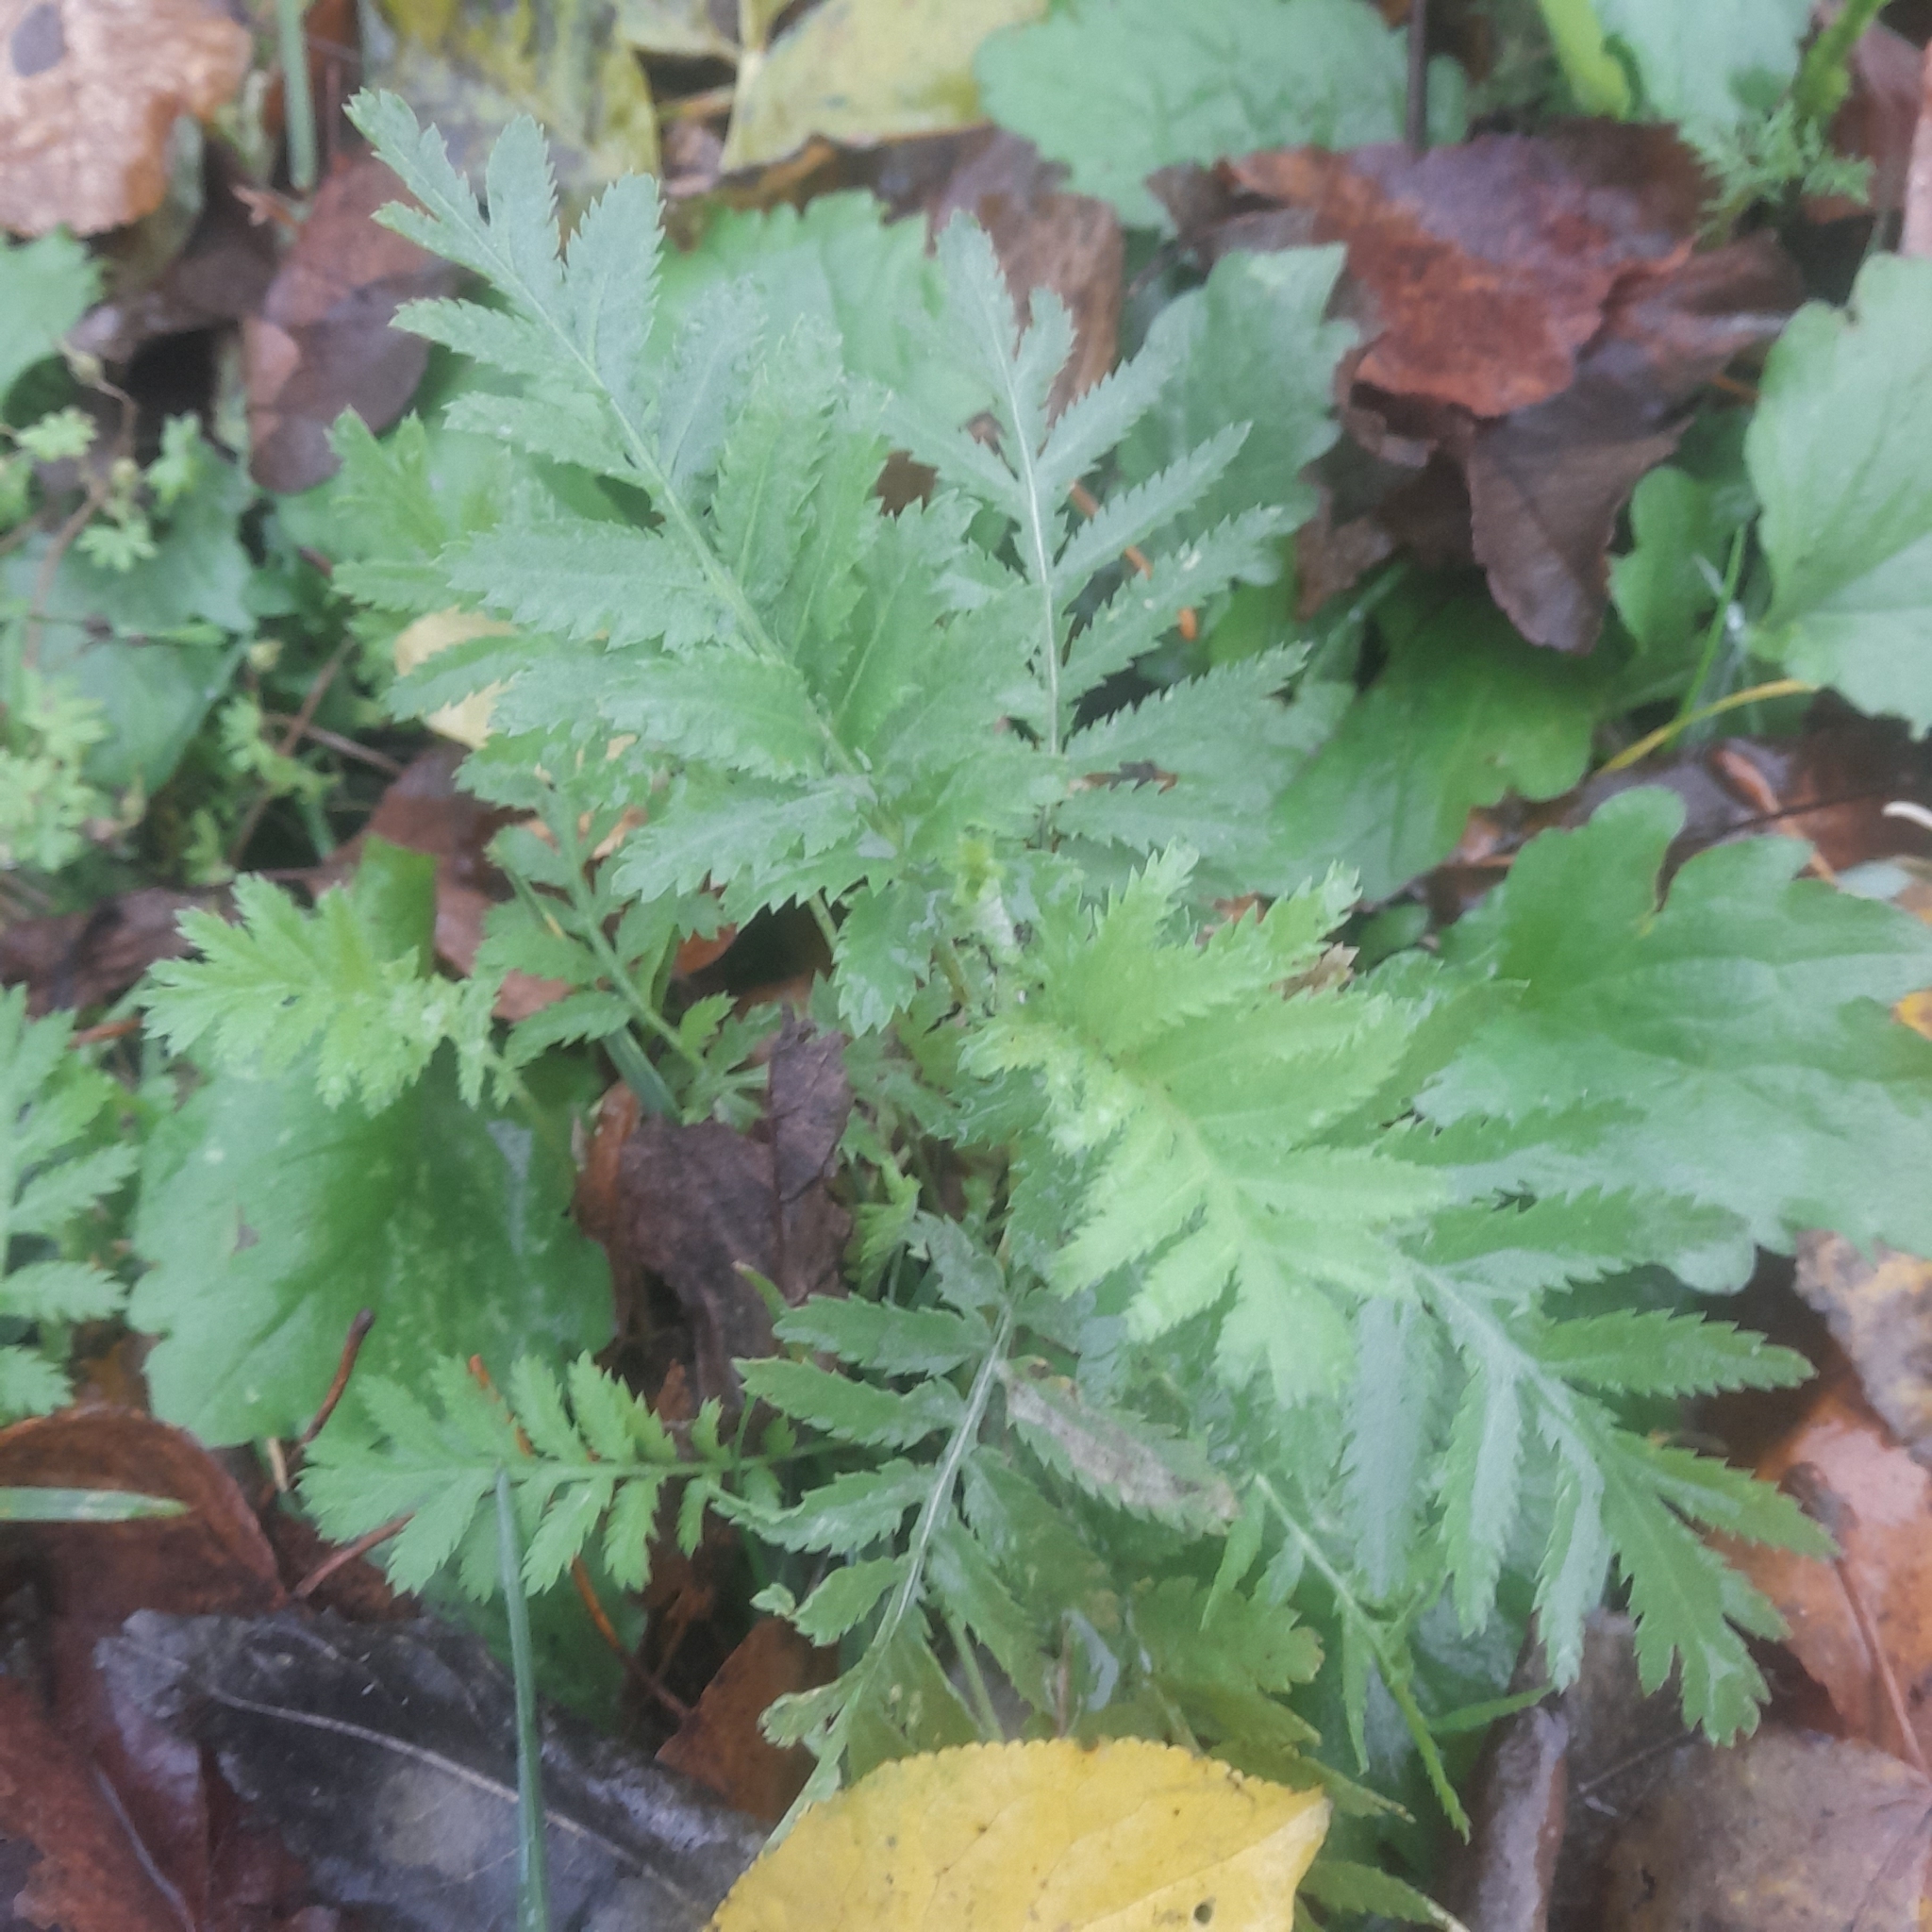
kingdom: Plantae
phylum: Tracheophyta
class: Magnoliopsida
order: Asterales
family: Asteraceae
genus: Tanacetum
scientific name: Tanacetum vulgare
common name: Common tansy
